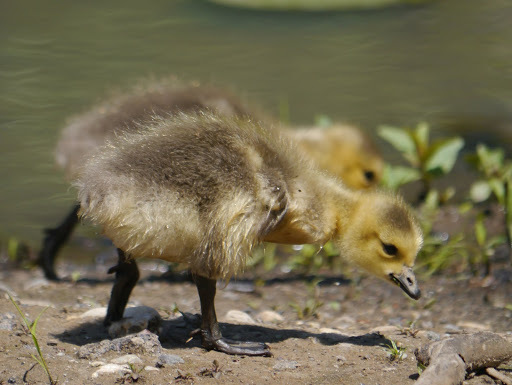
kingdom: Animalia
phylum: Chordata
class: Aves
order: Anseriformes
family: Anatidae
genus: Branta
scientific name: Branta canadensis
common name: Canada goose
